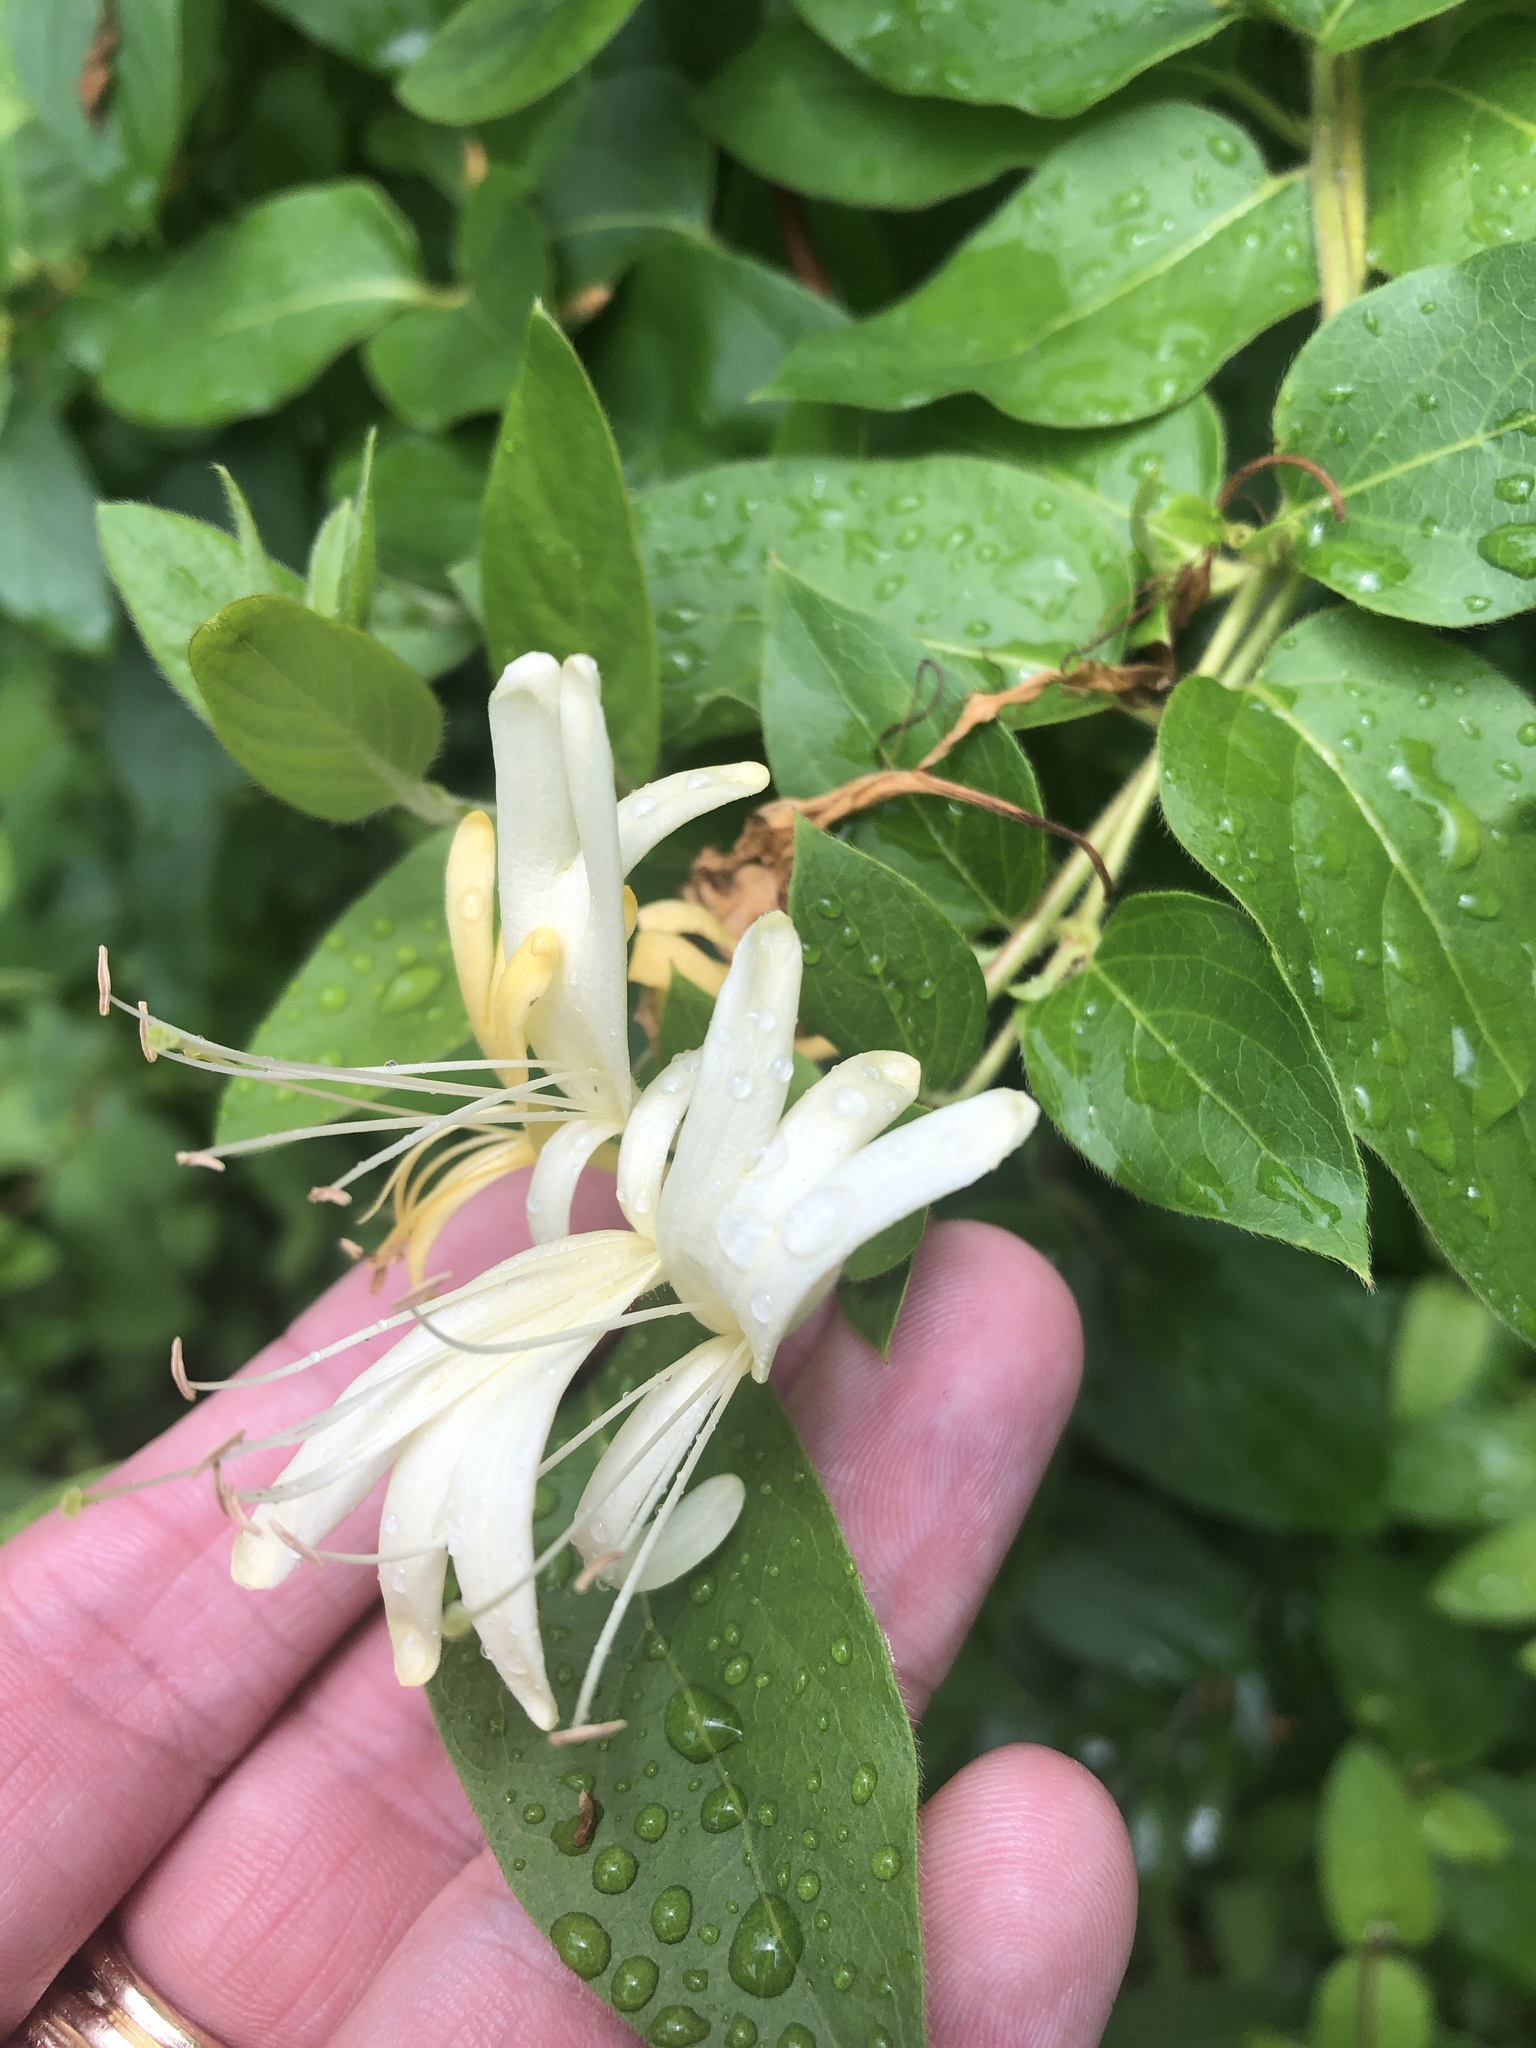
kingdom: Plantae
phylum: Tracheophyta
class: Magnoliopsida
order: Dipsacales
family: Caprifoliaceae
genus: Lonicera
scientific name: Lonicera japonica
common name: Japanese honeysuckle
